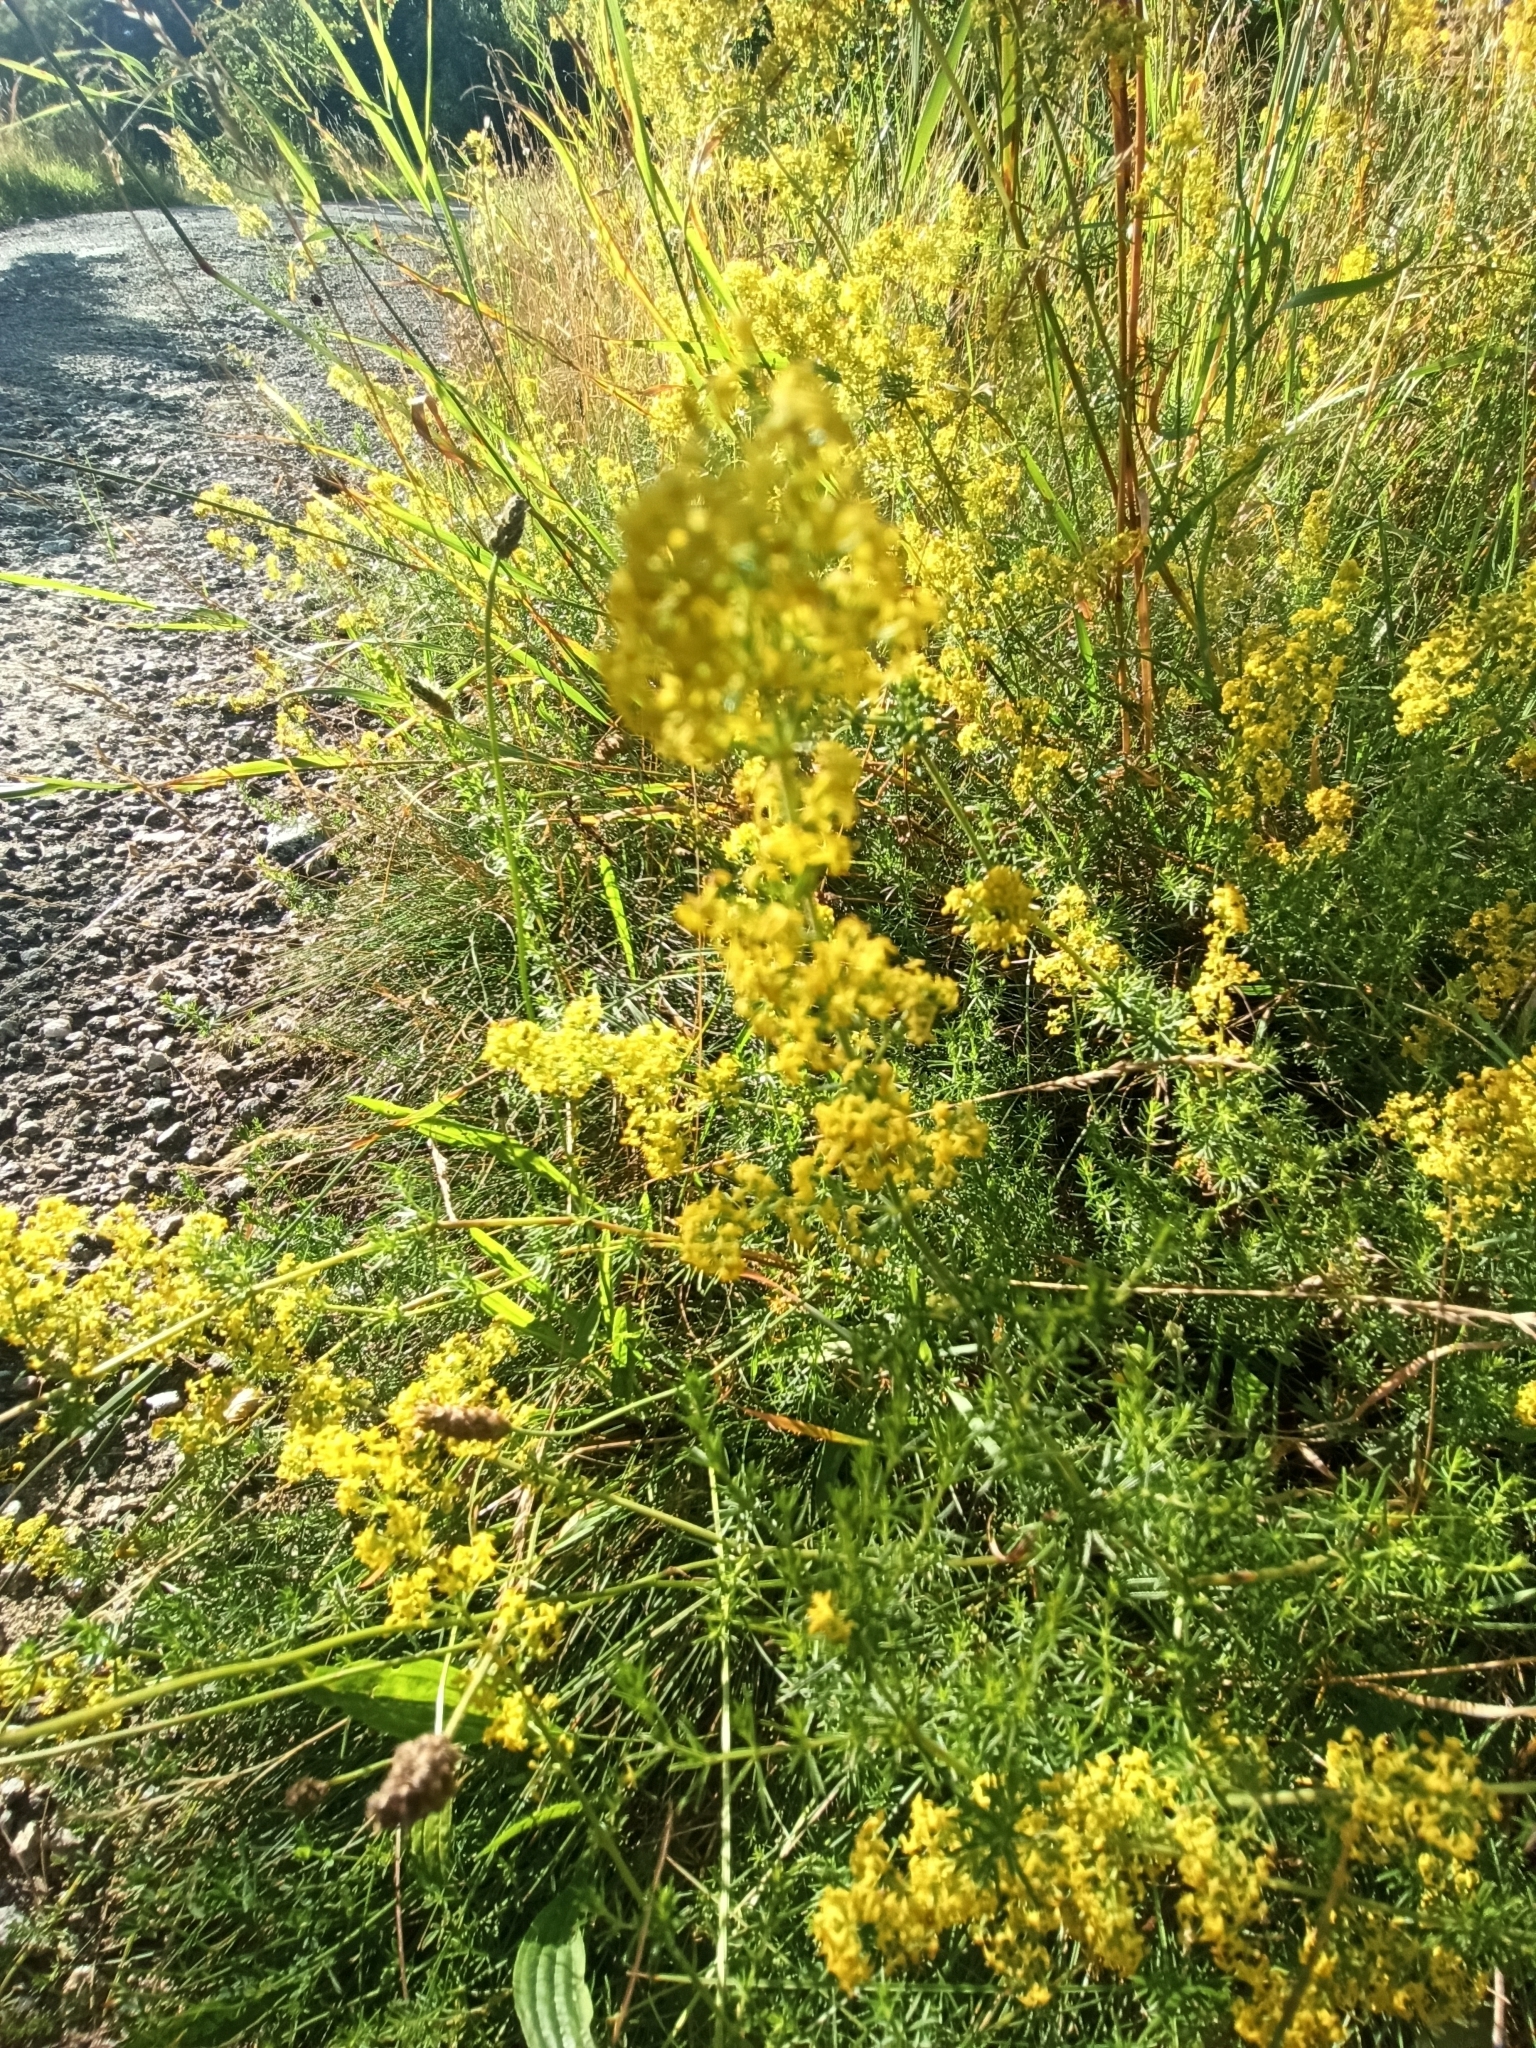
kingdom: Plantae
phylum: Tracheophyta
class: Magnoliopsida
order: Gentianales
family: Rubiaceae
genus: Galium
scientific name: Galium verum
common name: Lady's bedstraw
